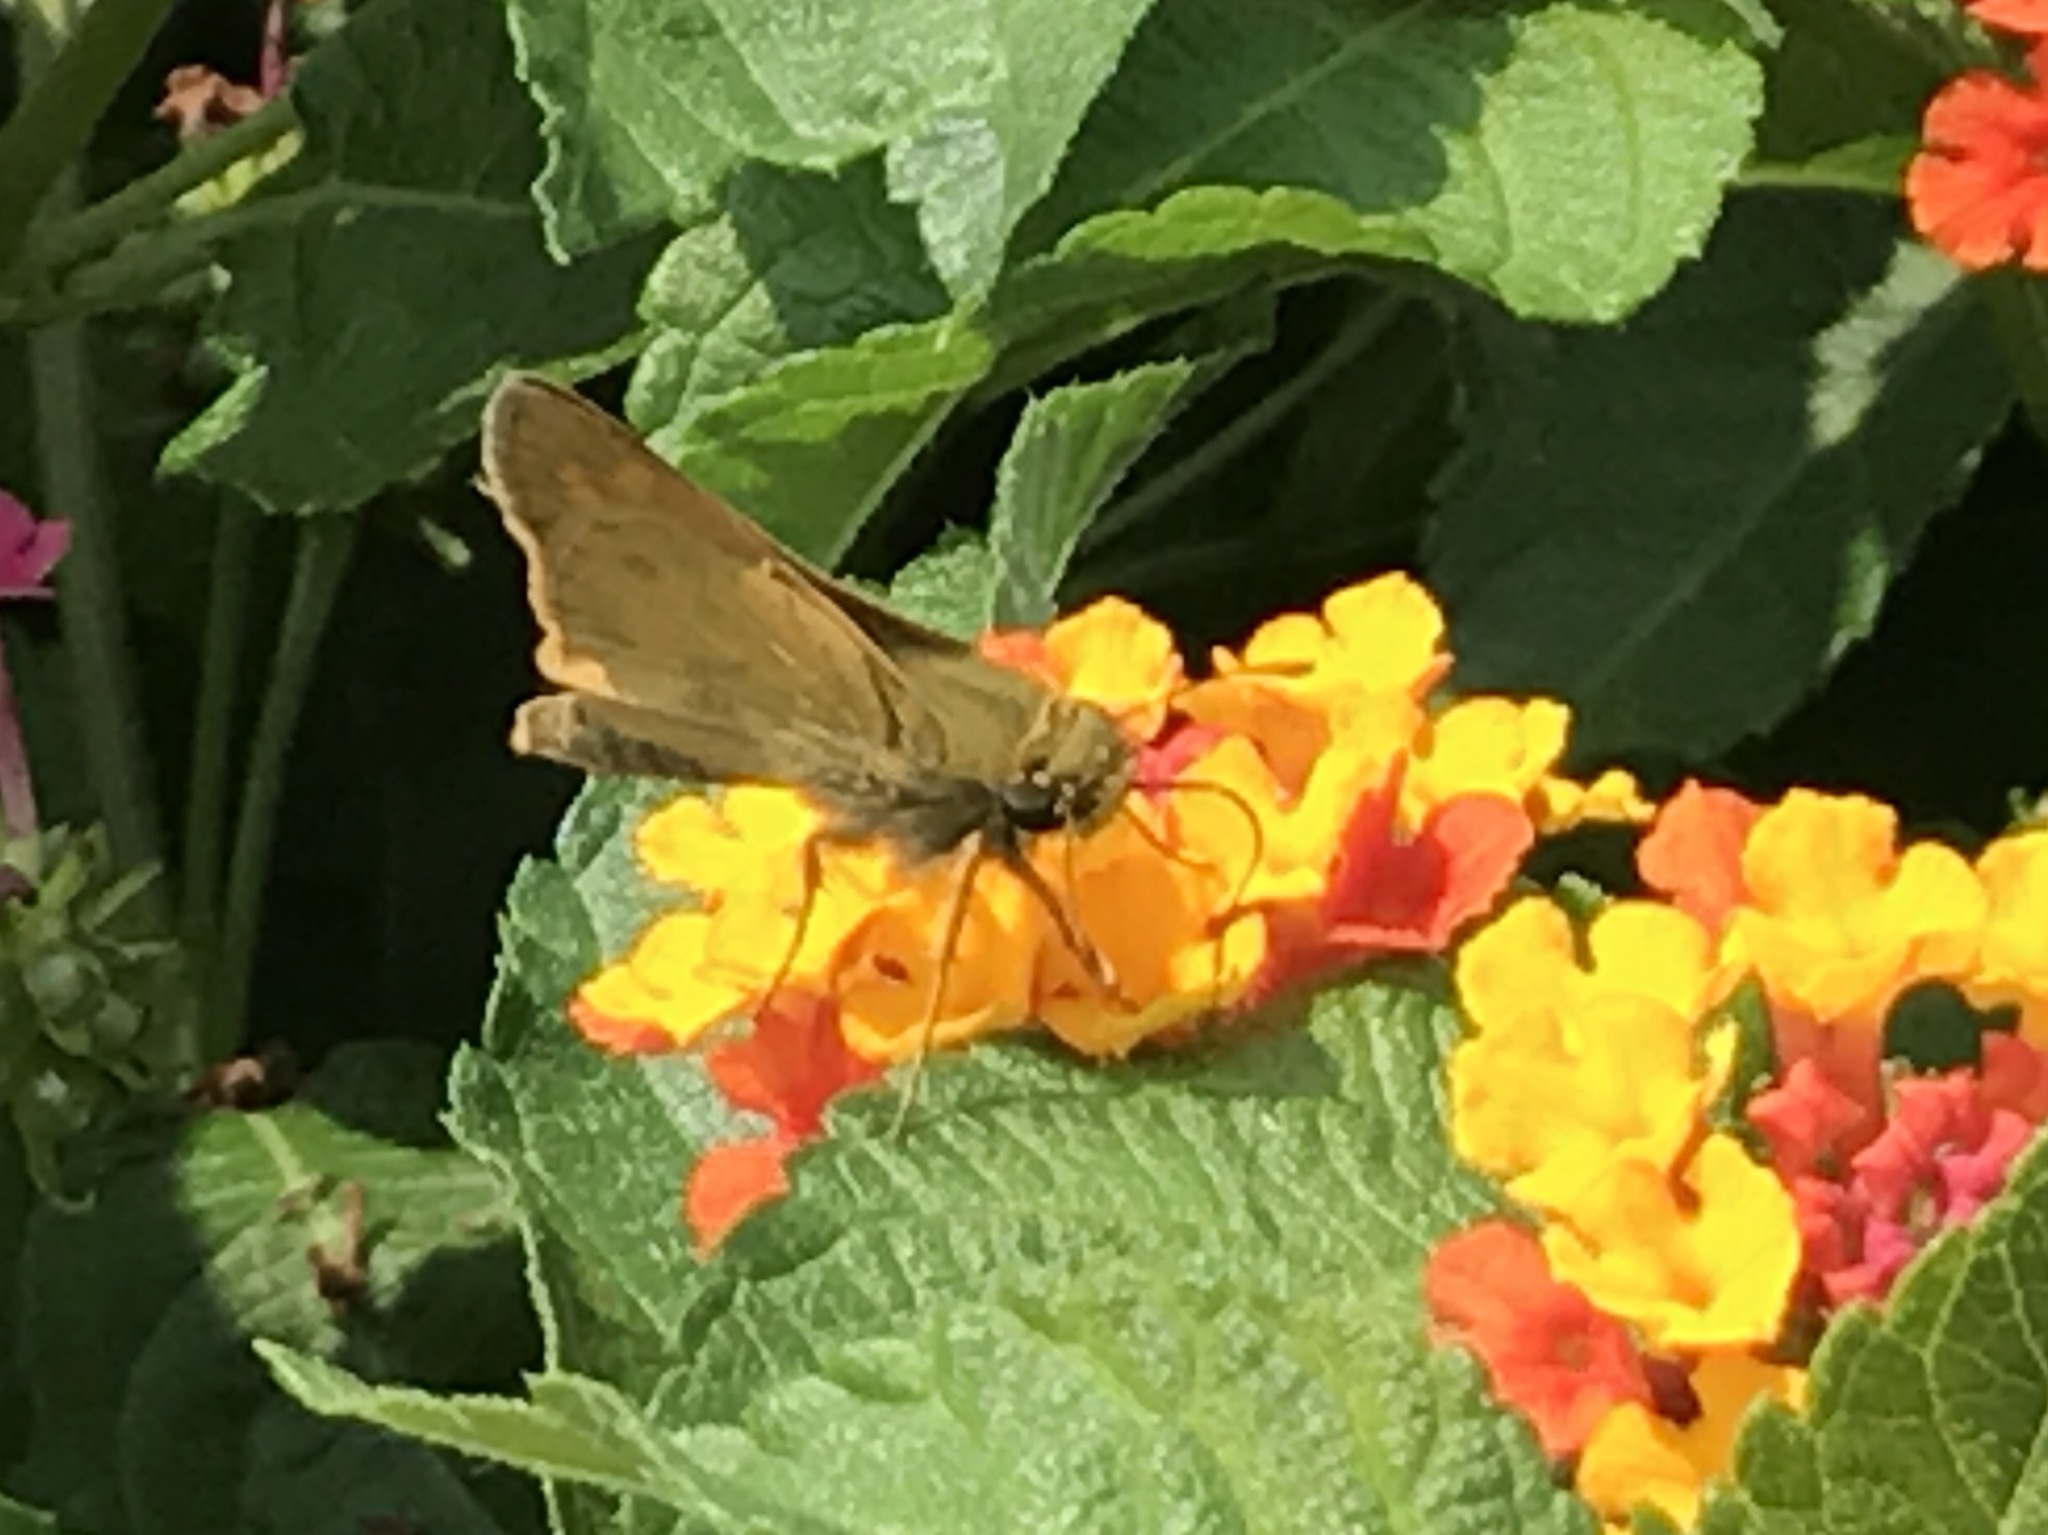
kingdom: Animalia
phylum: Arthropoda
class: Insecta
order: Lepidoptera
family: Hesperiidae
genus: Atalopedes
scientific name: Atalopedes
